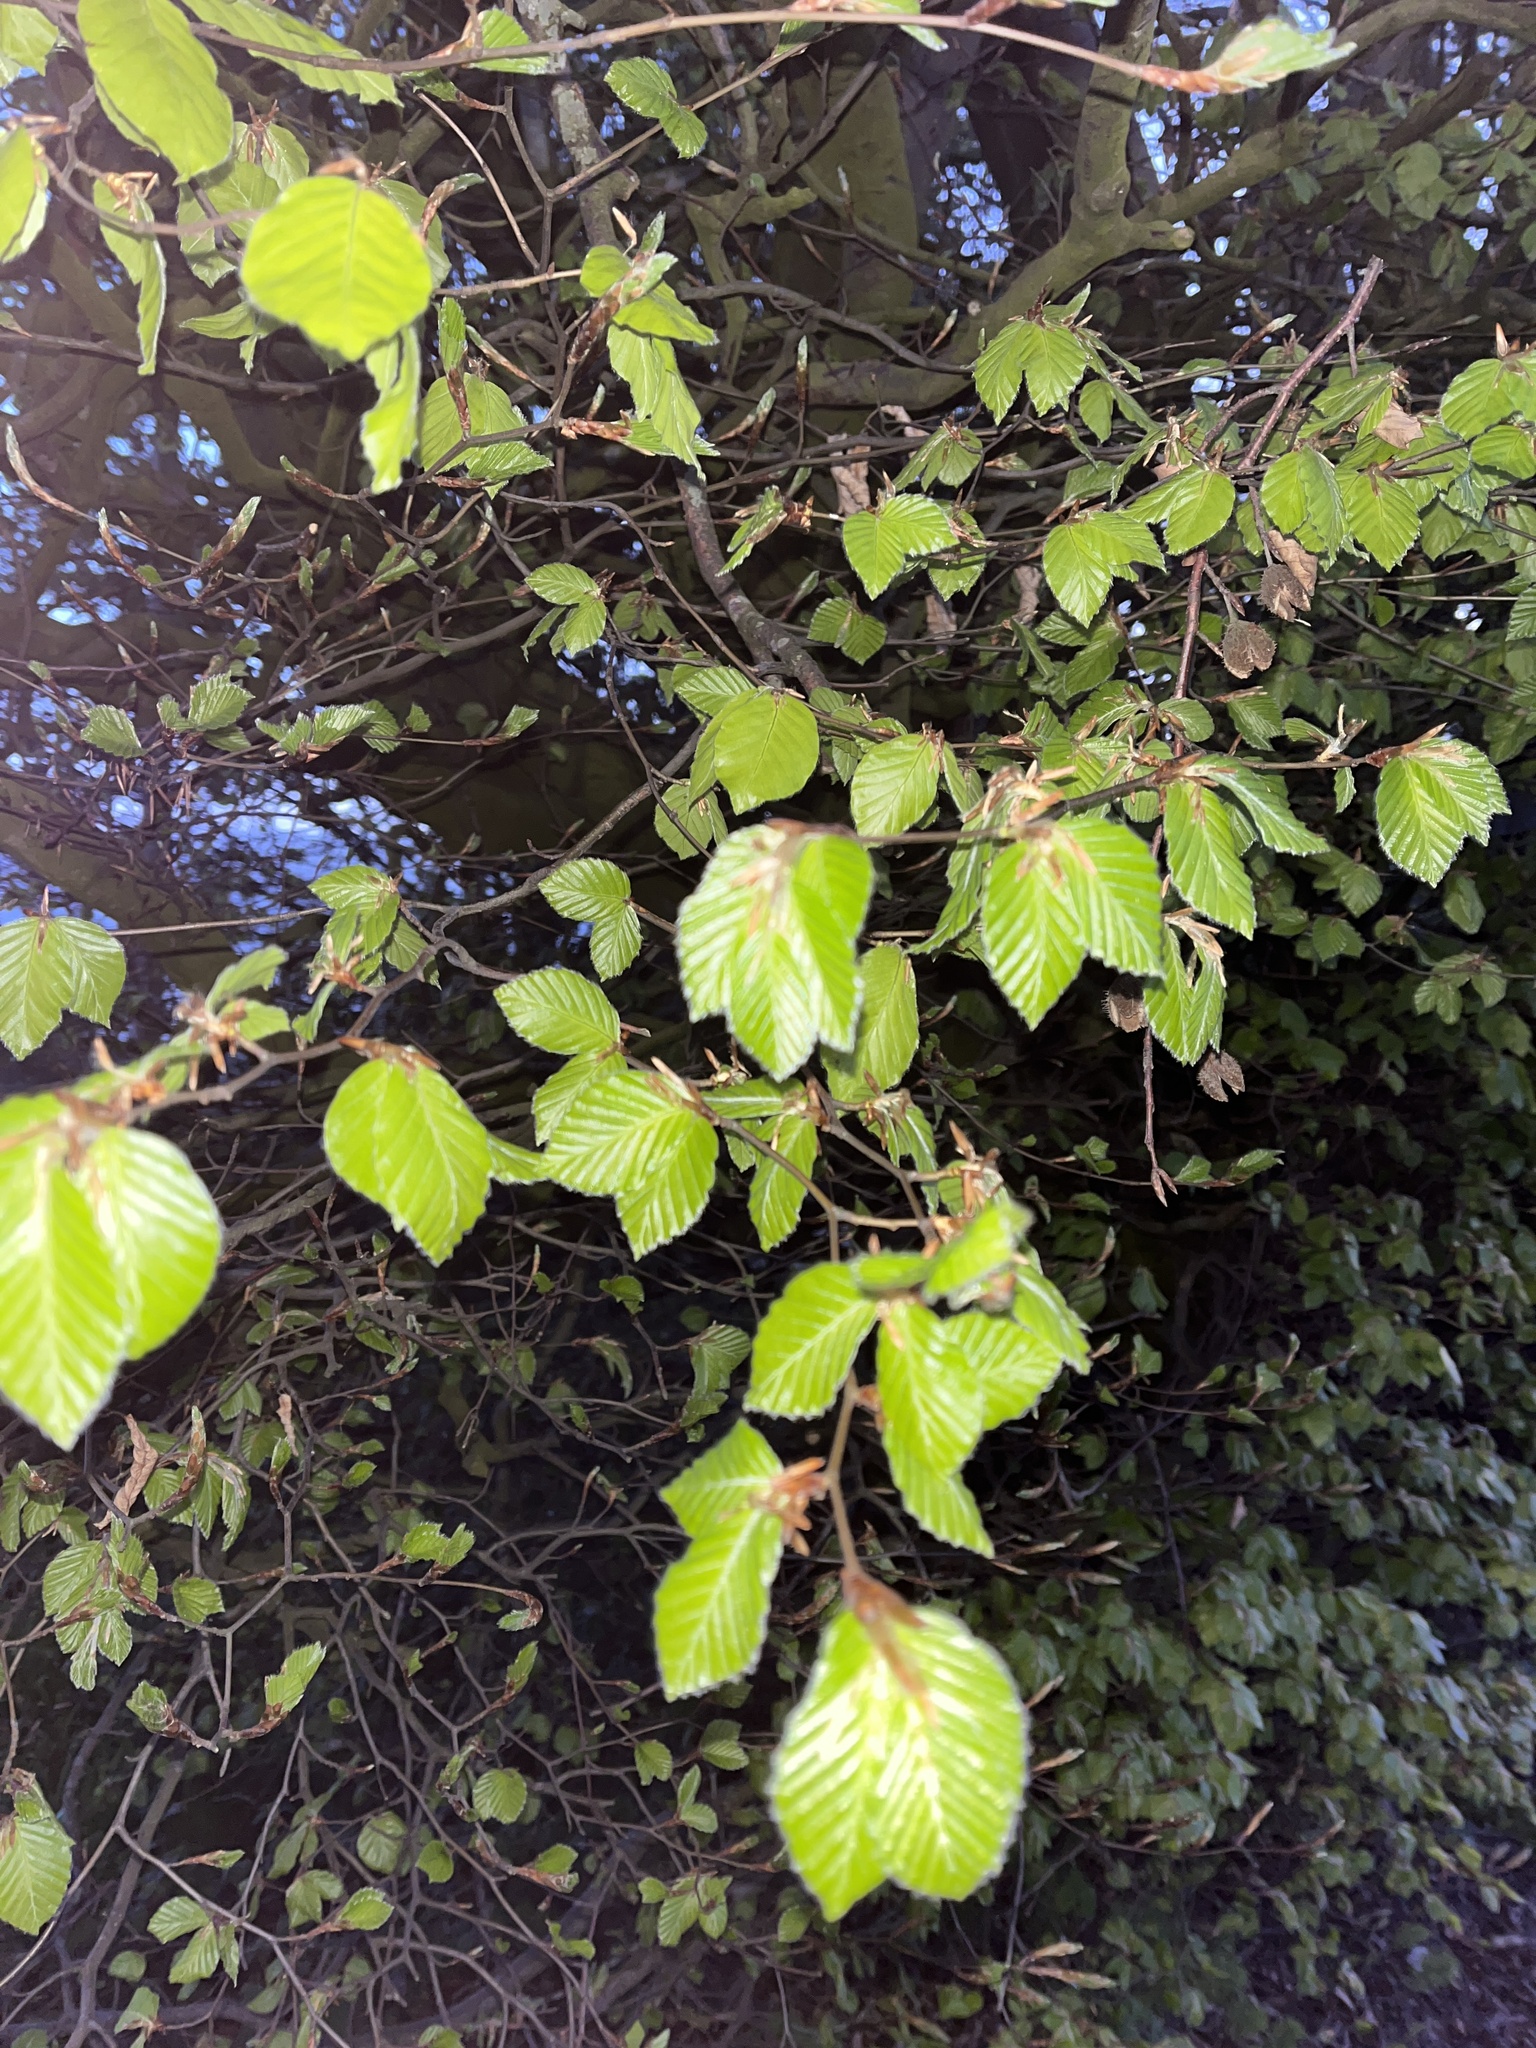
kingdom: Plantae
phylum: Tracheophyta
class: Magnoliopsida
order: Fagales
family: Fagaceae
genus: Fagus
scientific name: Fagus sylvatica
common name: Beech
